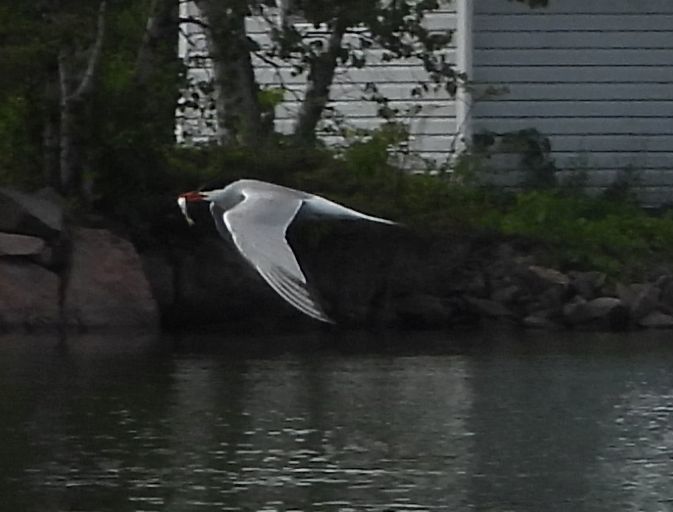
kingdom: Animalia
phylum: Chordata
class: Aves
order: Charadriiformes
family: Laridae
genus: Sterna
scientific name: Sterna hirundo
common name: Common tern
